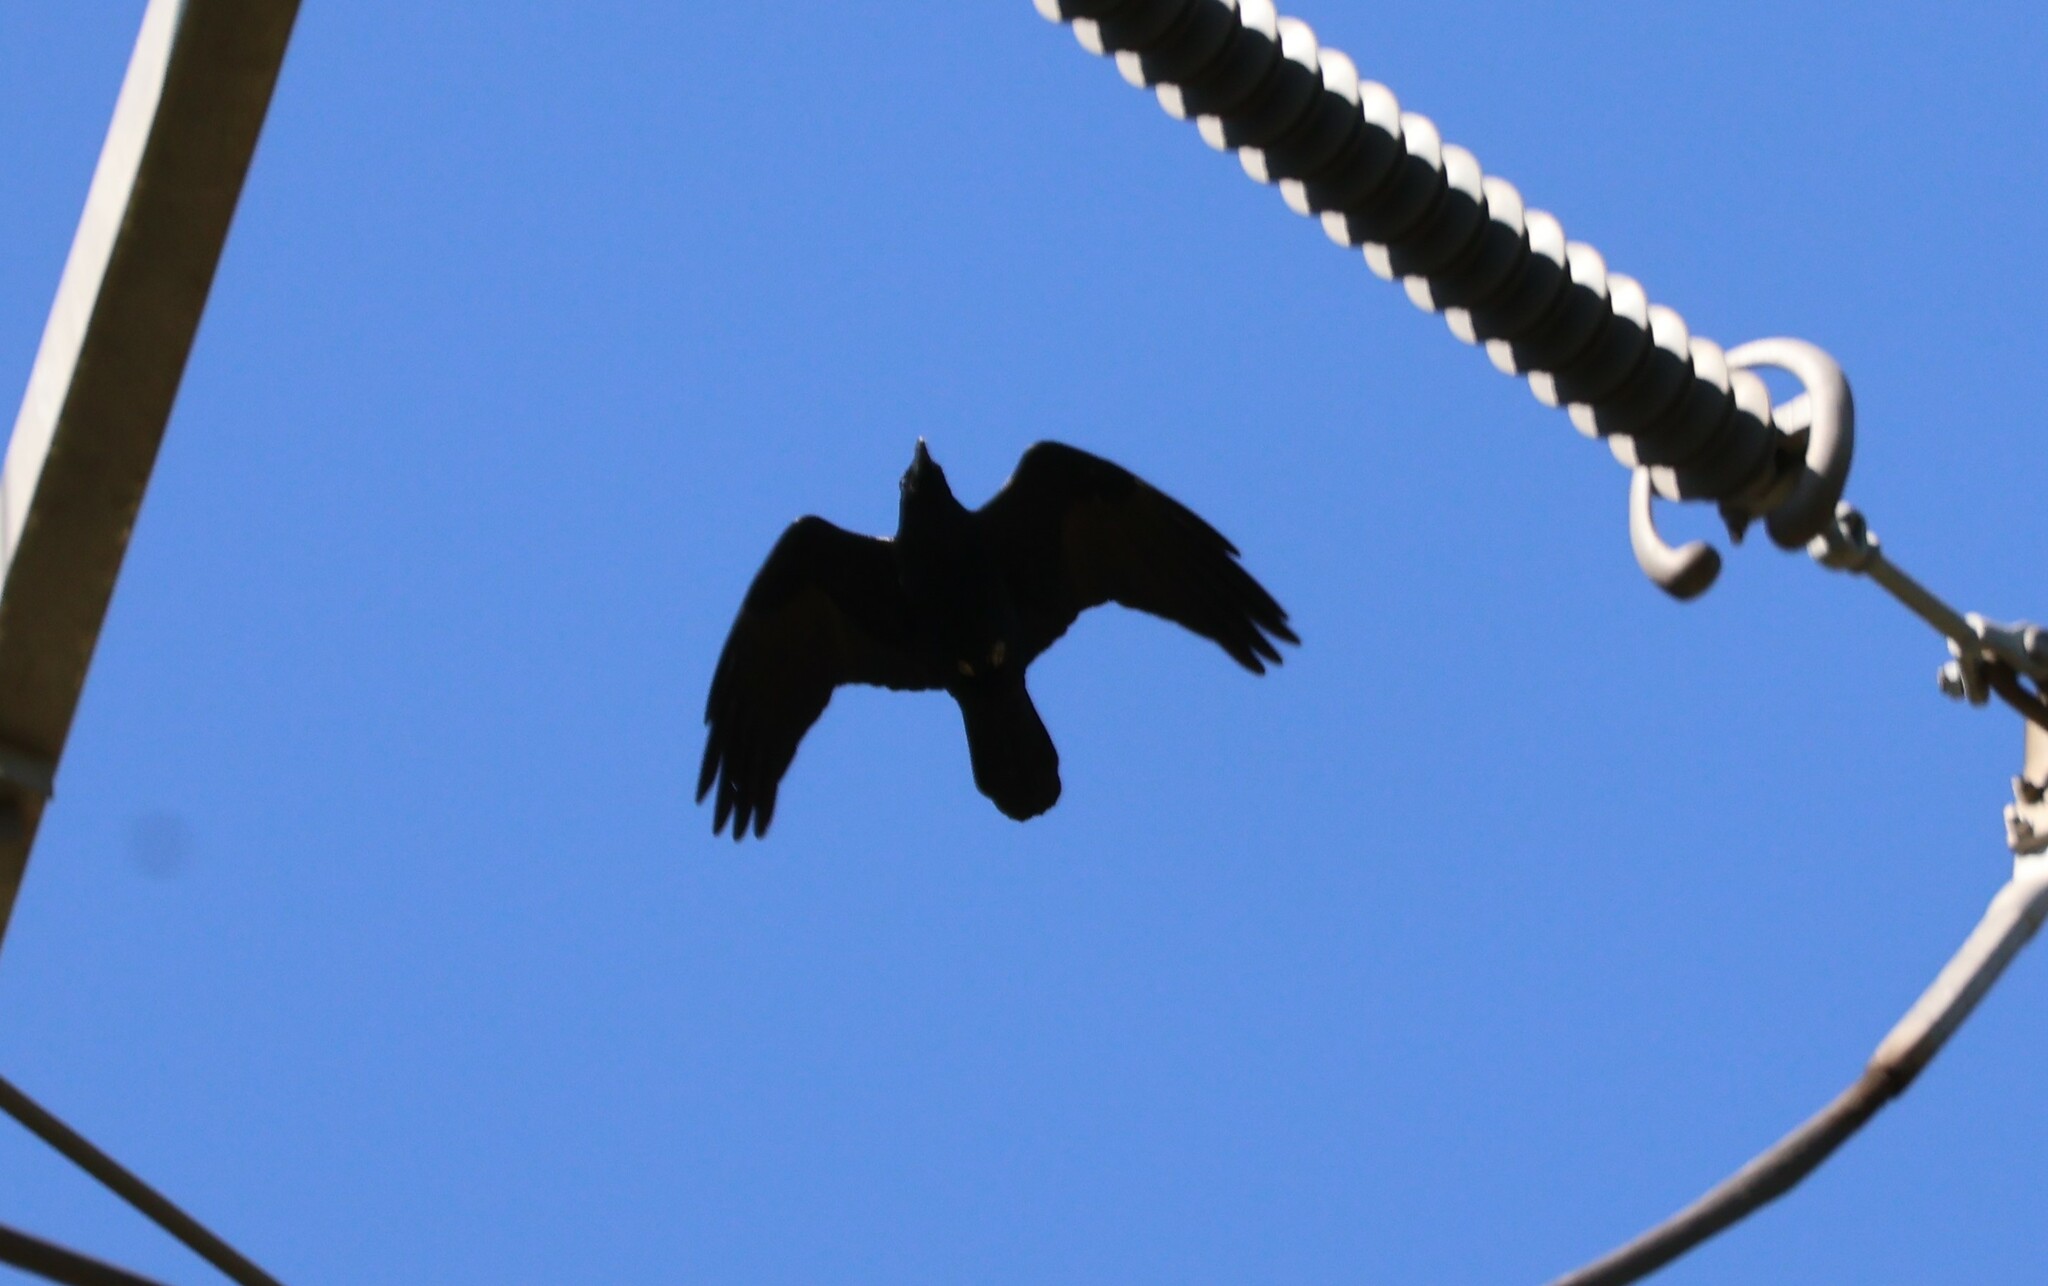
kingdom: Animalia
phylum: Chordata
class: Aves
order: Passeriformes
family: Corvidae
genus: Corvus
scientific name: Corvus corax
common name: Common raven
